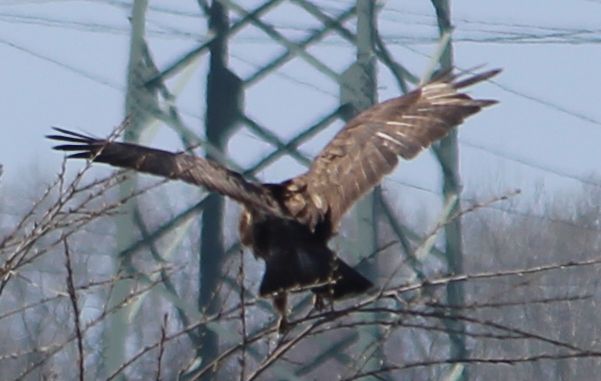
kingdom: Animalia
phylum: Chordata
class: Aves
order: Accipitriformes
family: Accipitridae
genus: Buteo
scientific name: Buteo buteo
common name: Common buzzard
